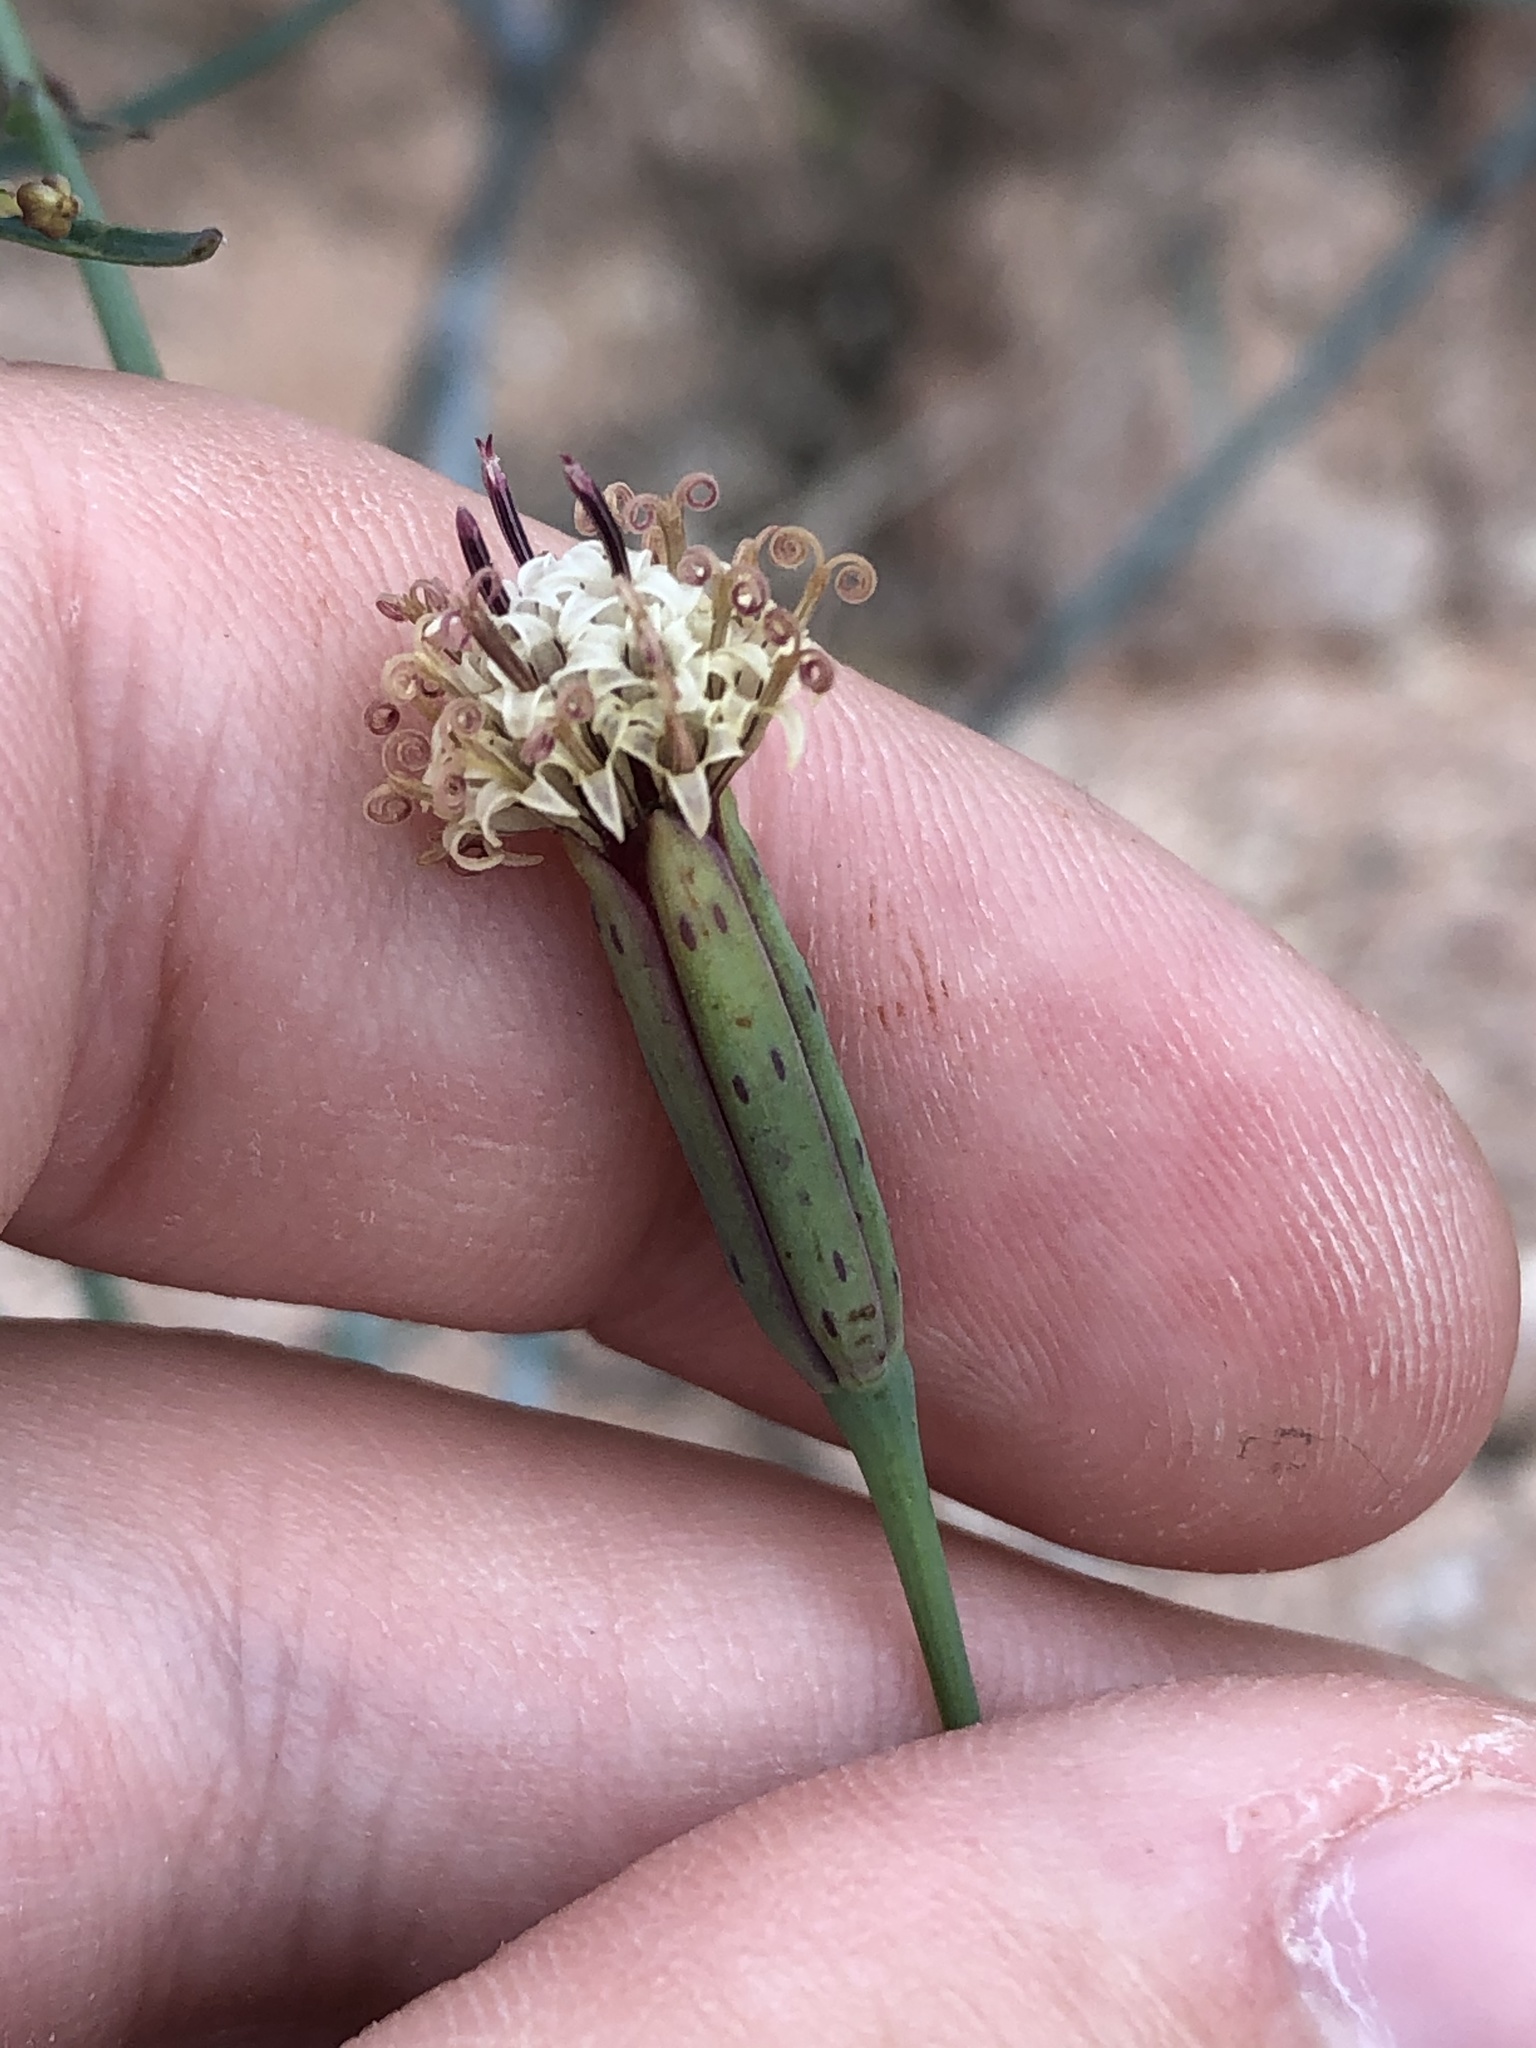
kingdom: Plantae
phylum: Tracheophyta
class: Magnoliopsida
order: Asterales
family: Asteraceae
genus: Porophyllum
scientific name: Porophyllum gracile
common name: Odora
